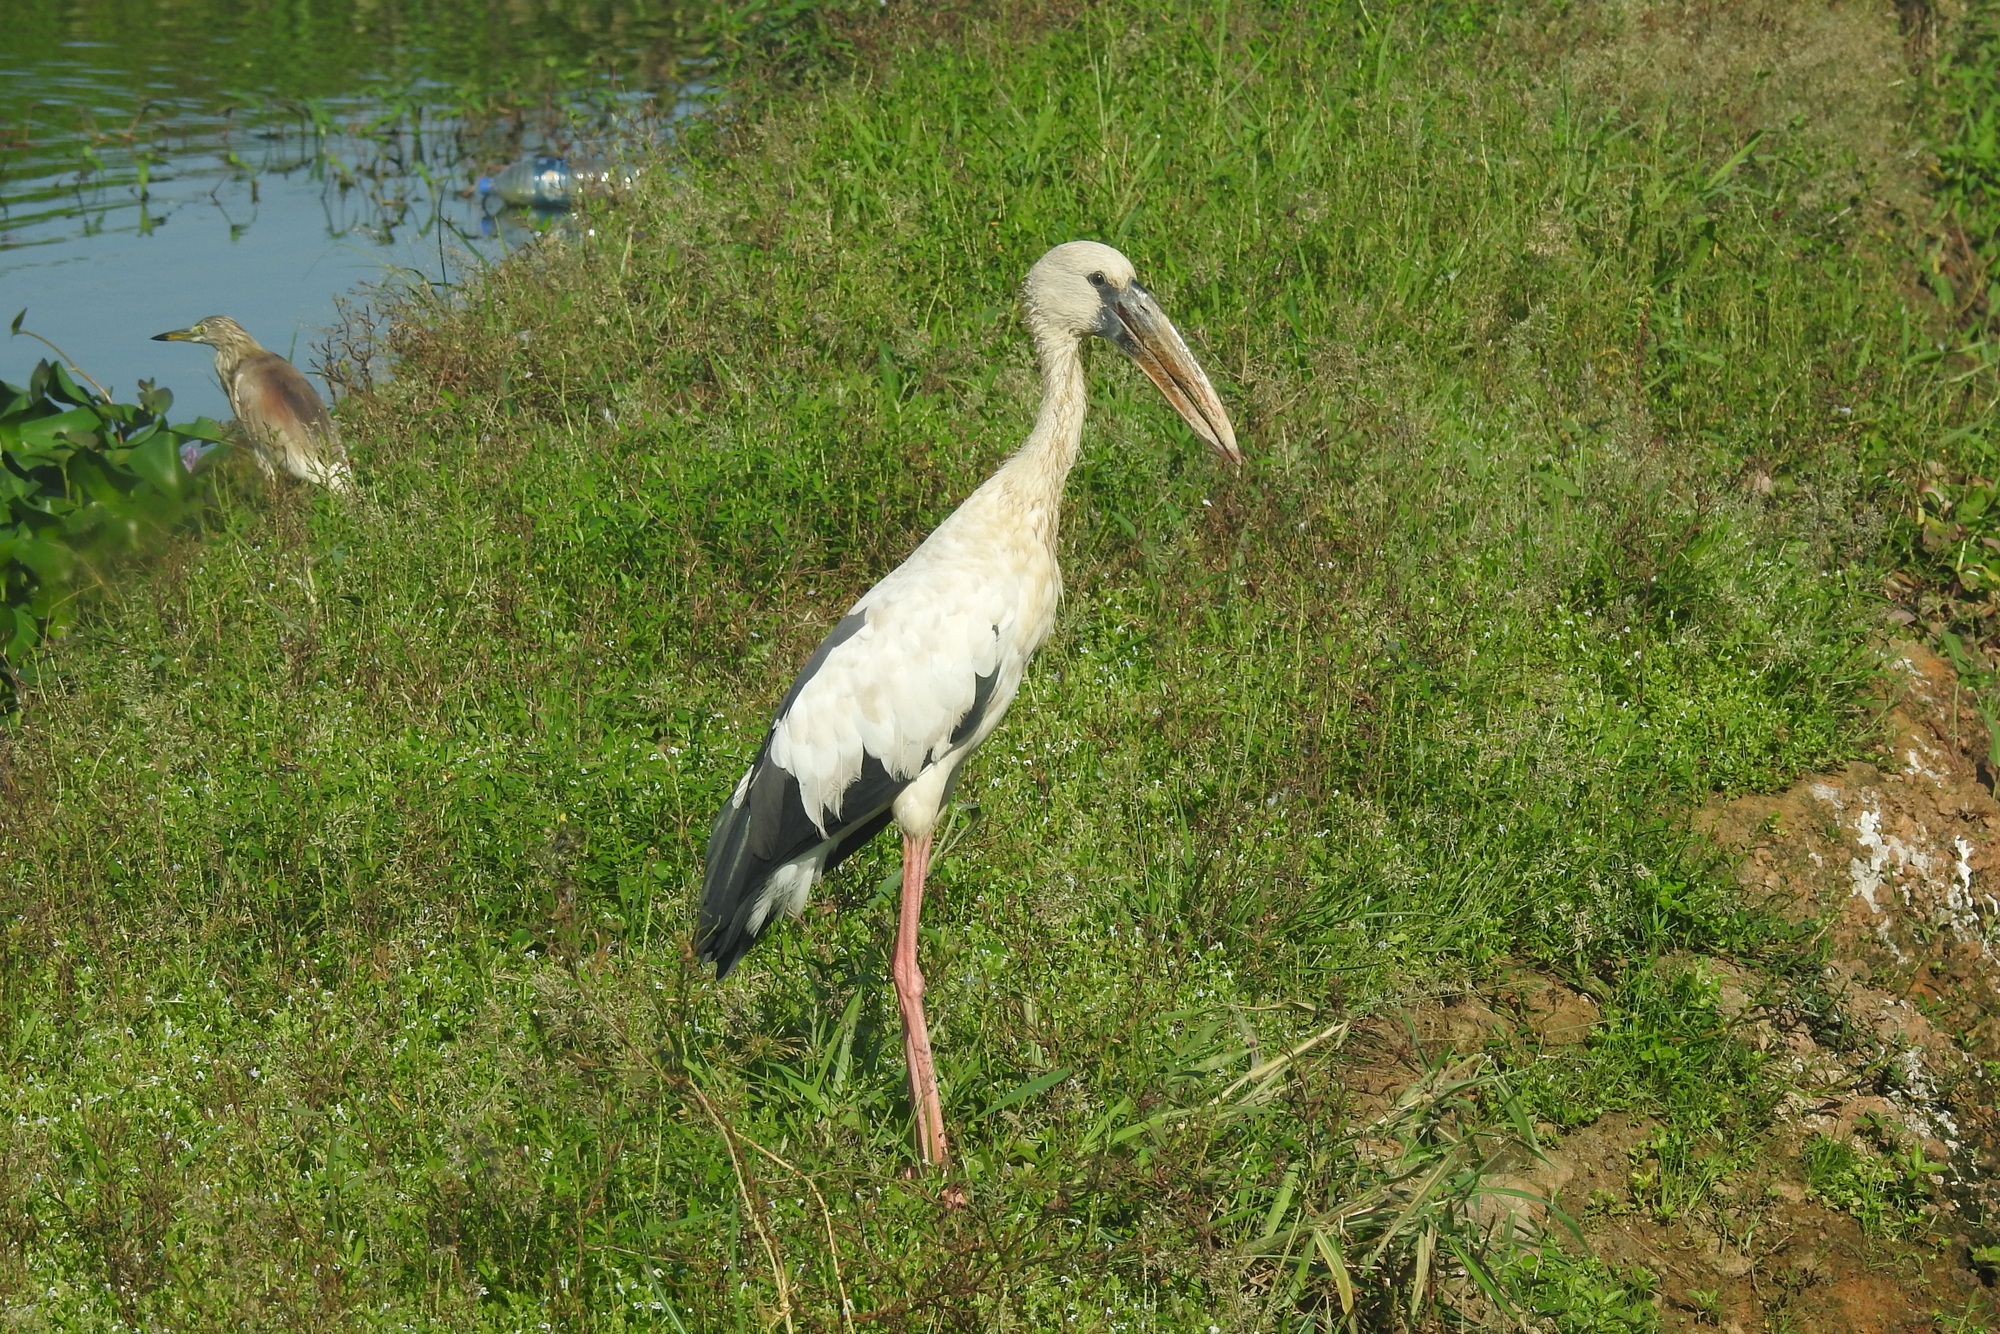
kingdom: Animalia
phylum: Chordata
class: Aves
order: Ciconiiformes
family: Ciconiidae
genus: Anastomus
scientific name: Anastomus oscitans
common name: Asian openbill
